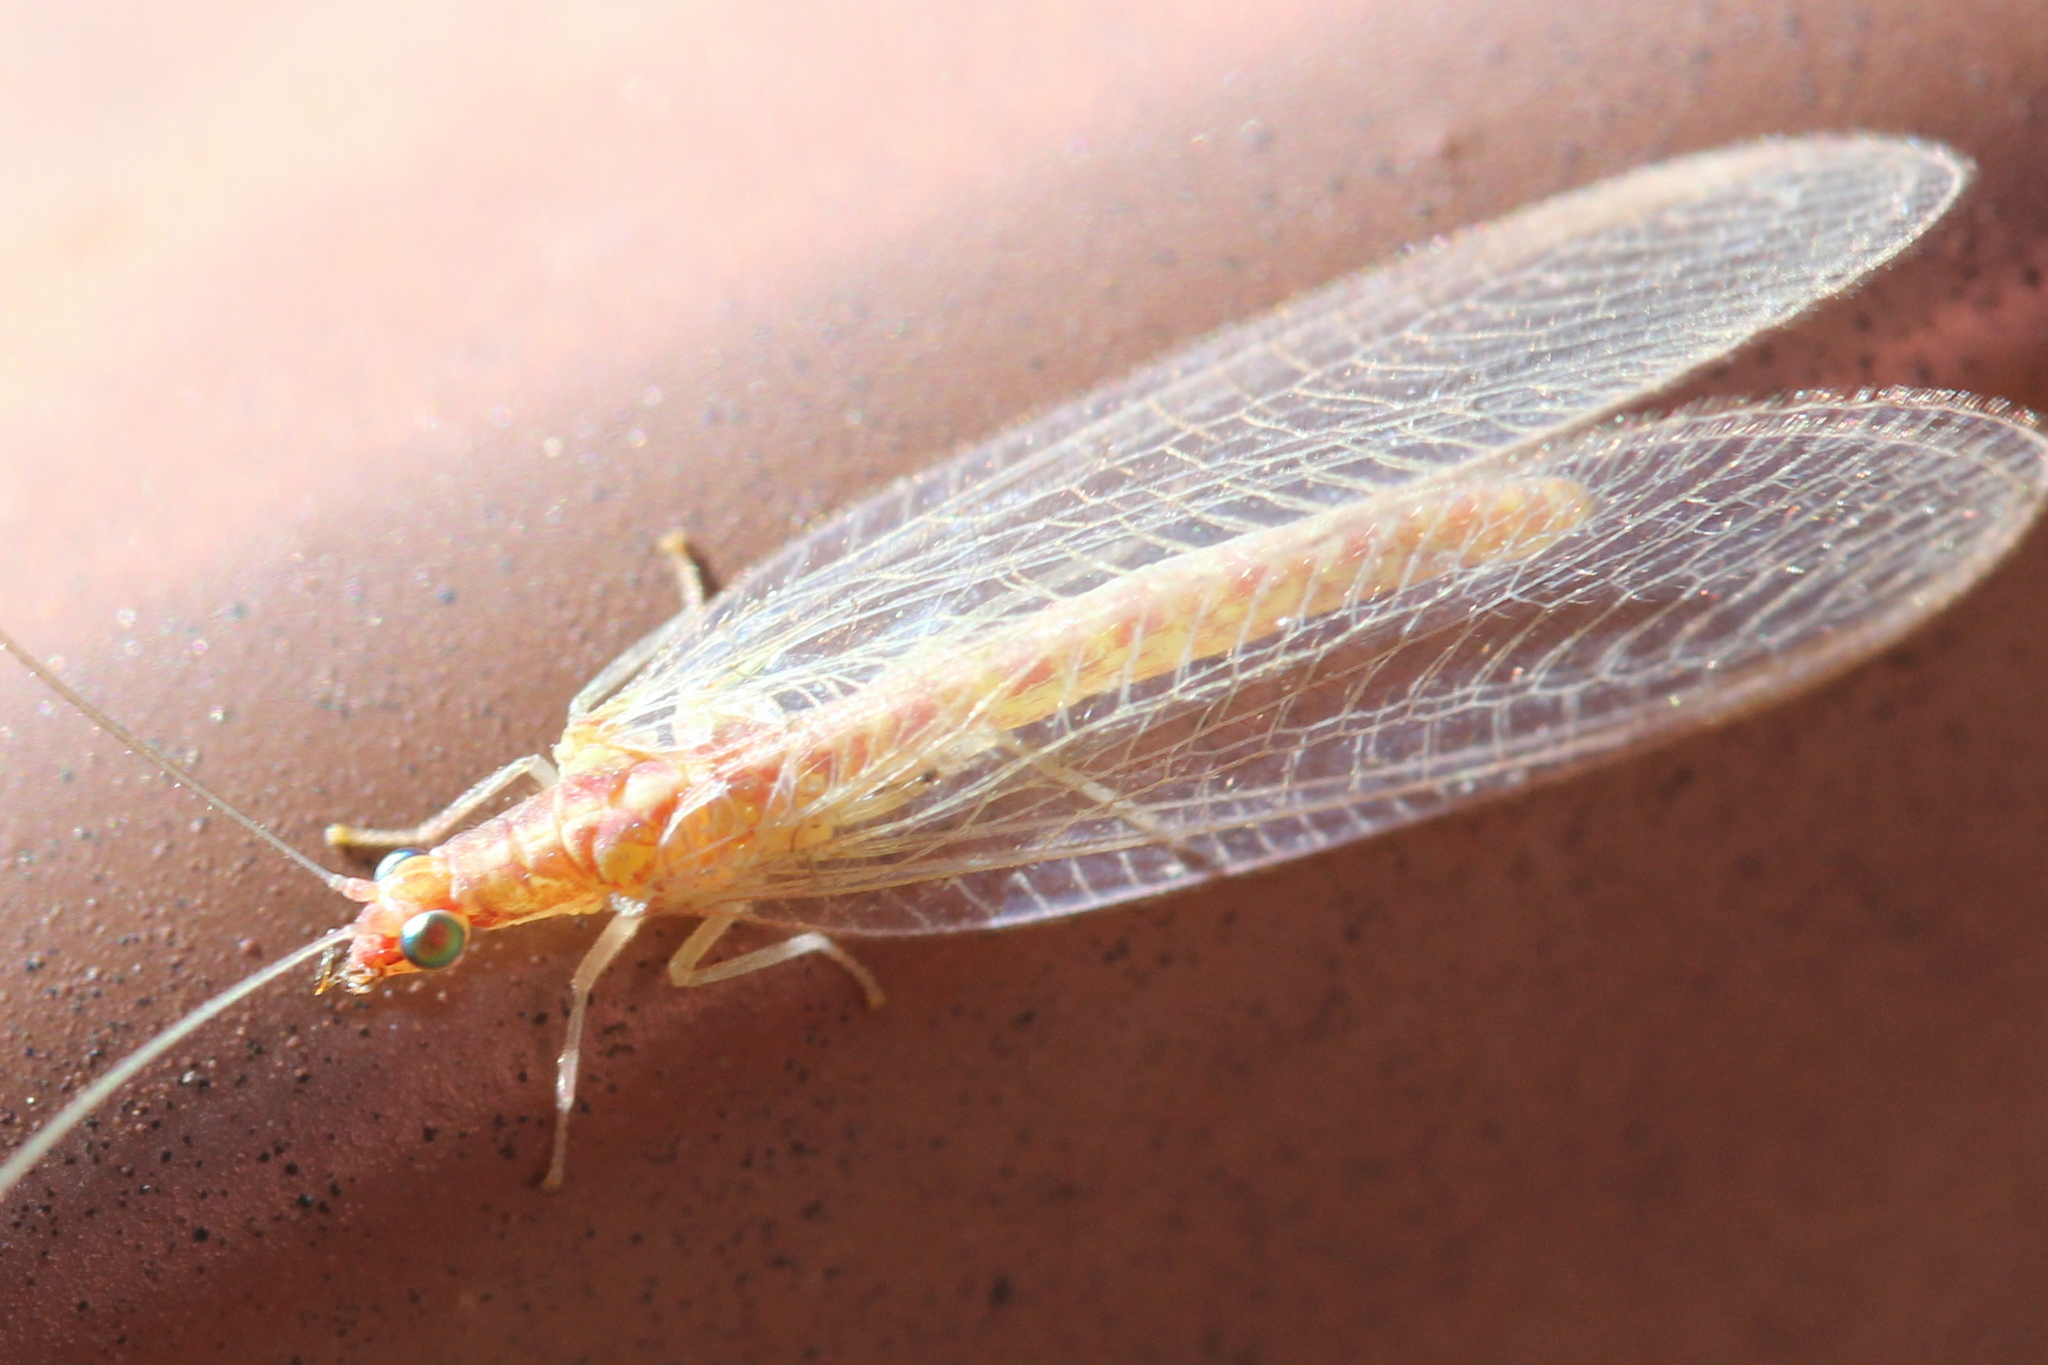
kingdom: Animalia
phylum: Arthropoda
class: Insecta
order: Neuroptera
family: Chrysopidae
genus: Chrysoperla
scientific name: Chrysoperla
